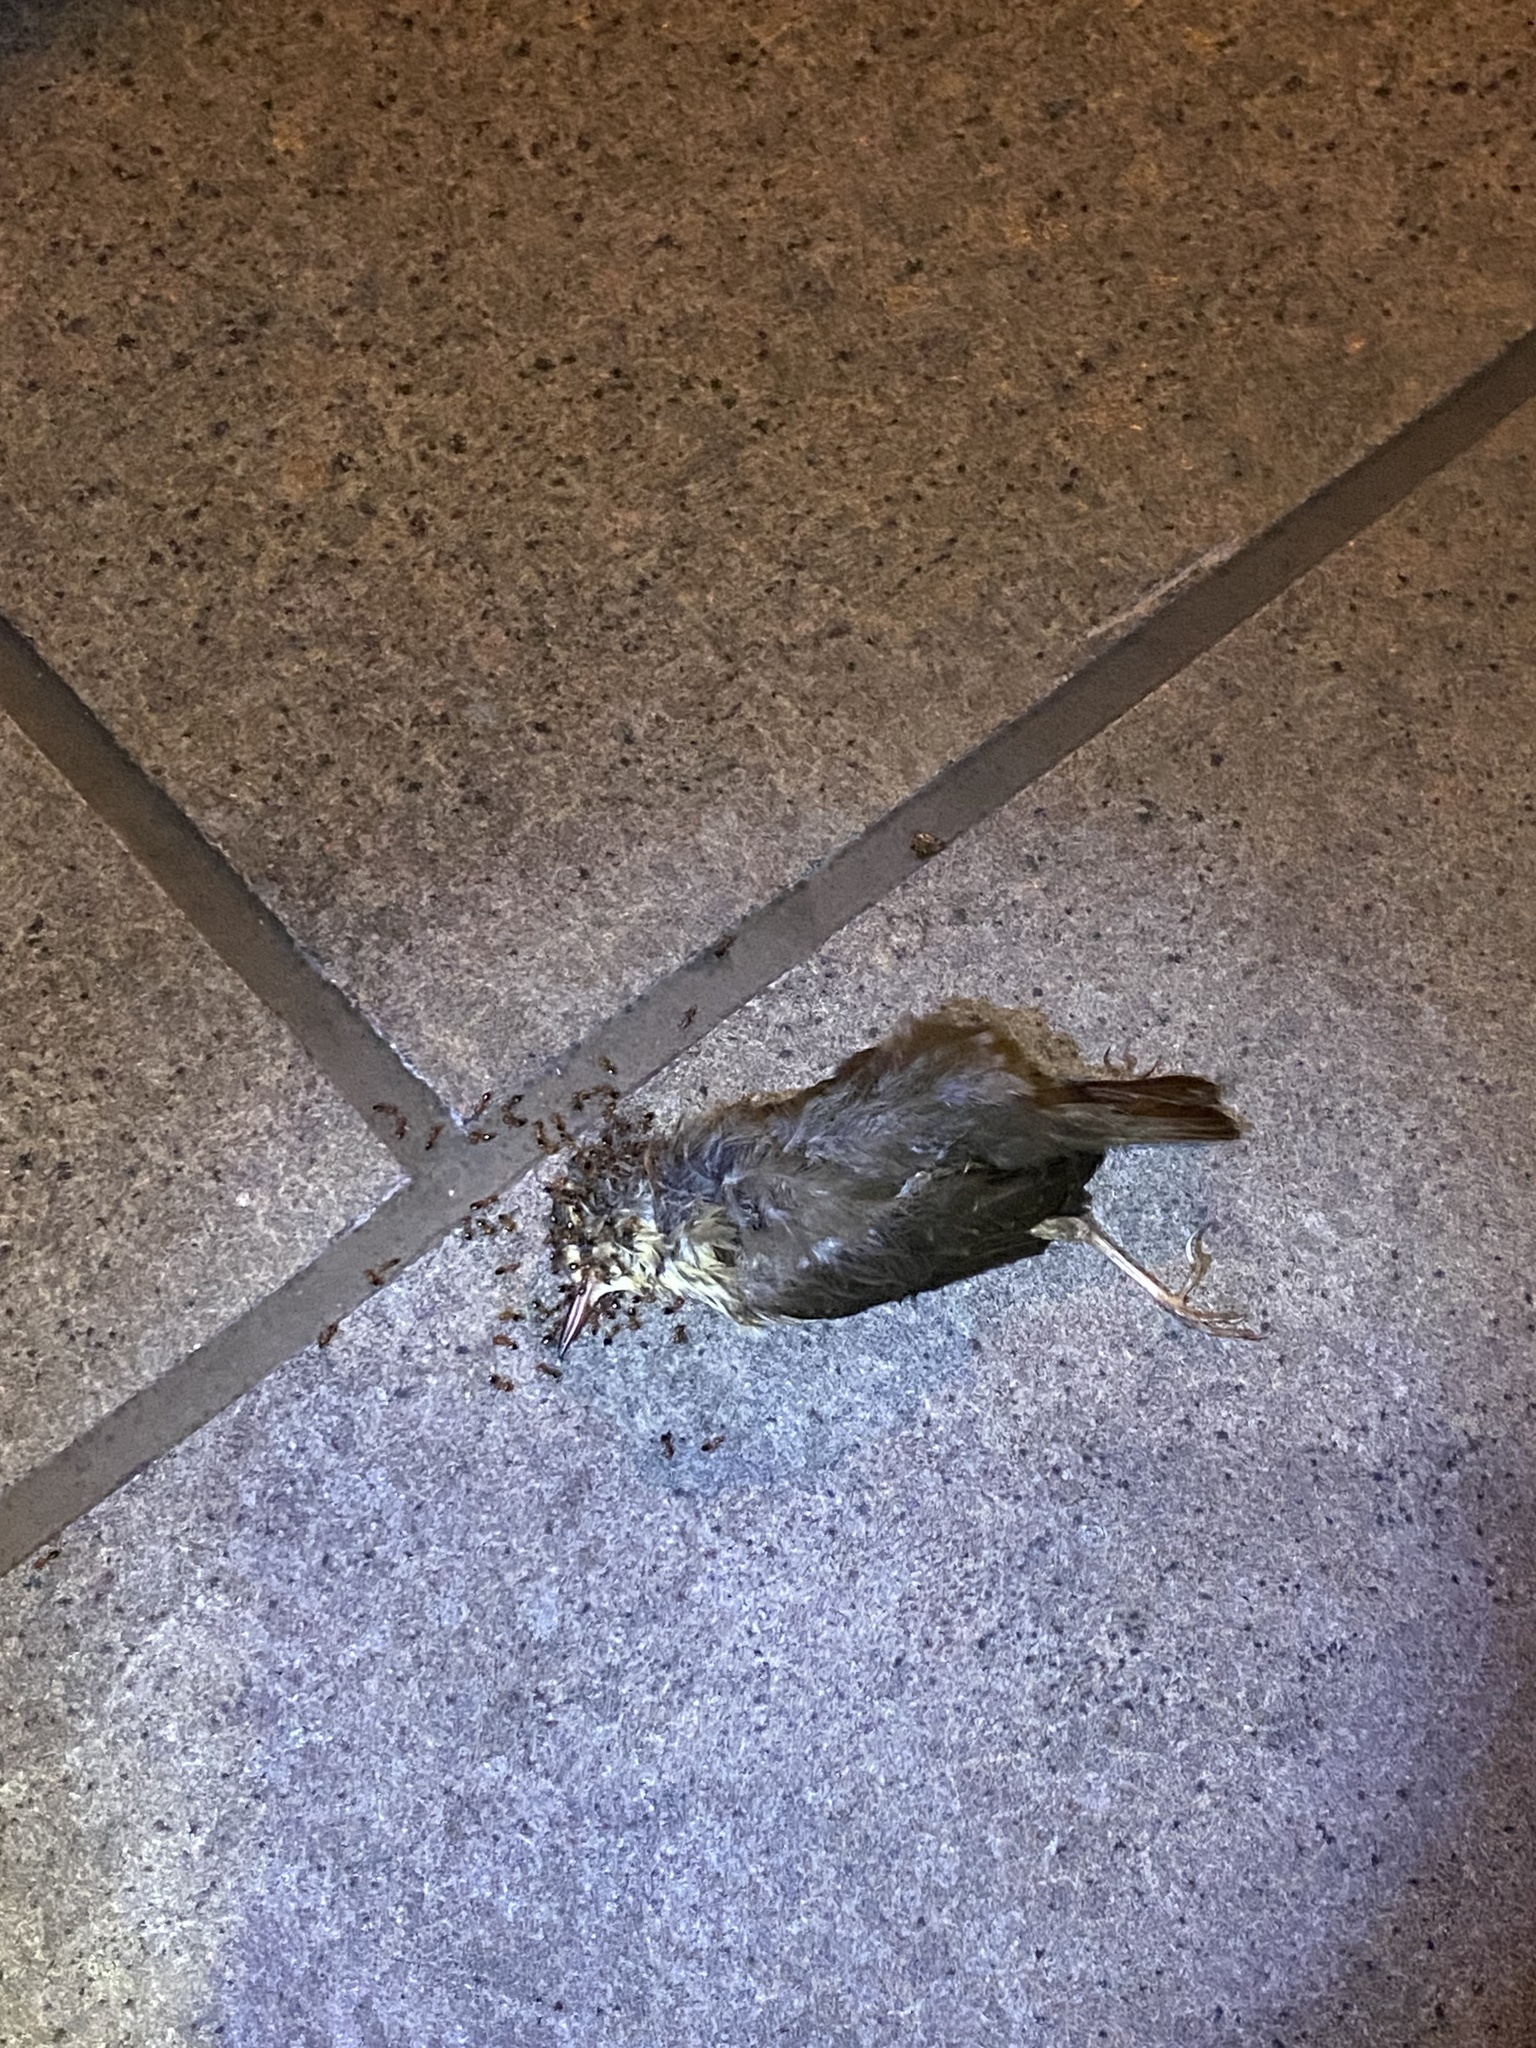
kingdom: Animalia
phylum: Chordata
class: Aves
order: Passeriformes
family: Parulidae
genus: Parkesia
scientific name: Parkesia noveboracensis
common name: Northern waterthrush
